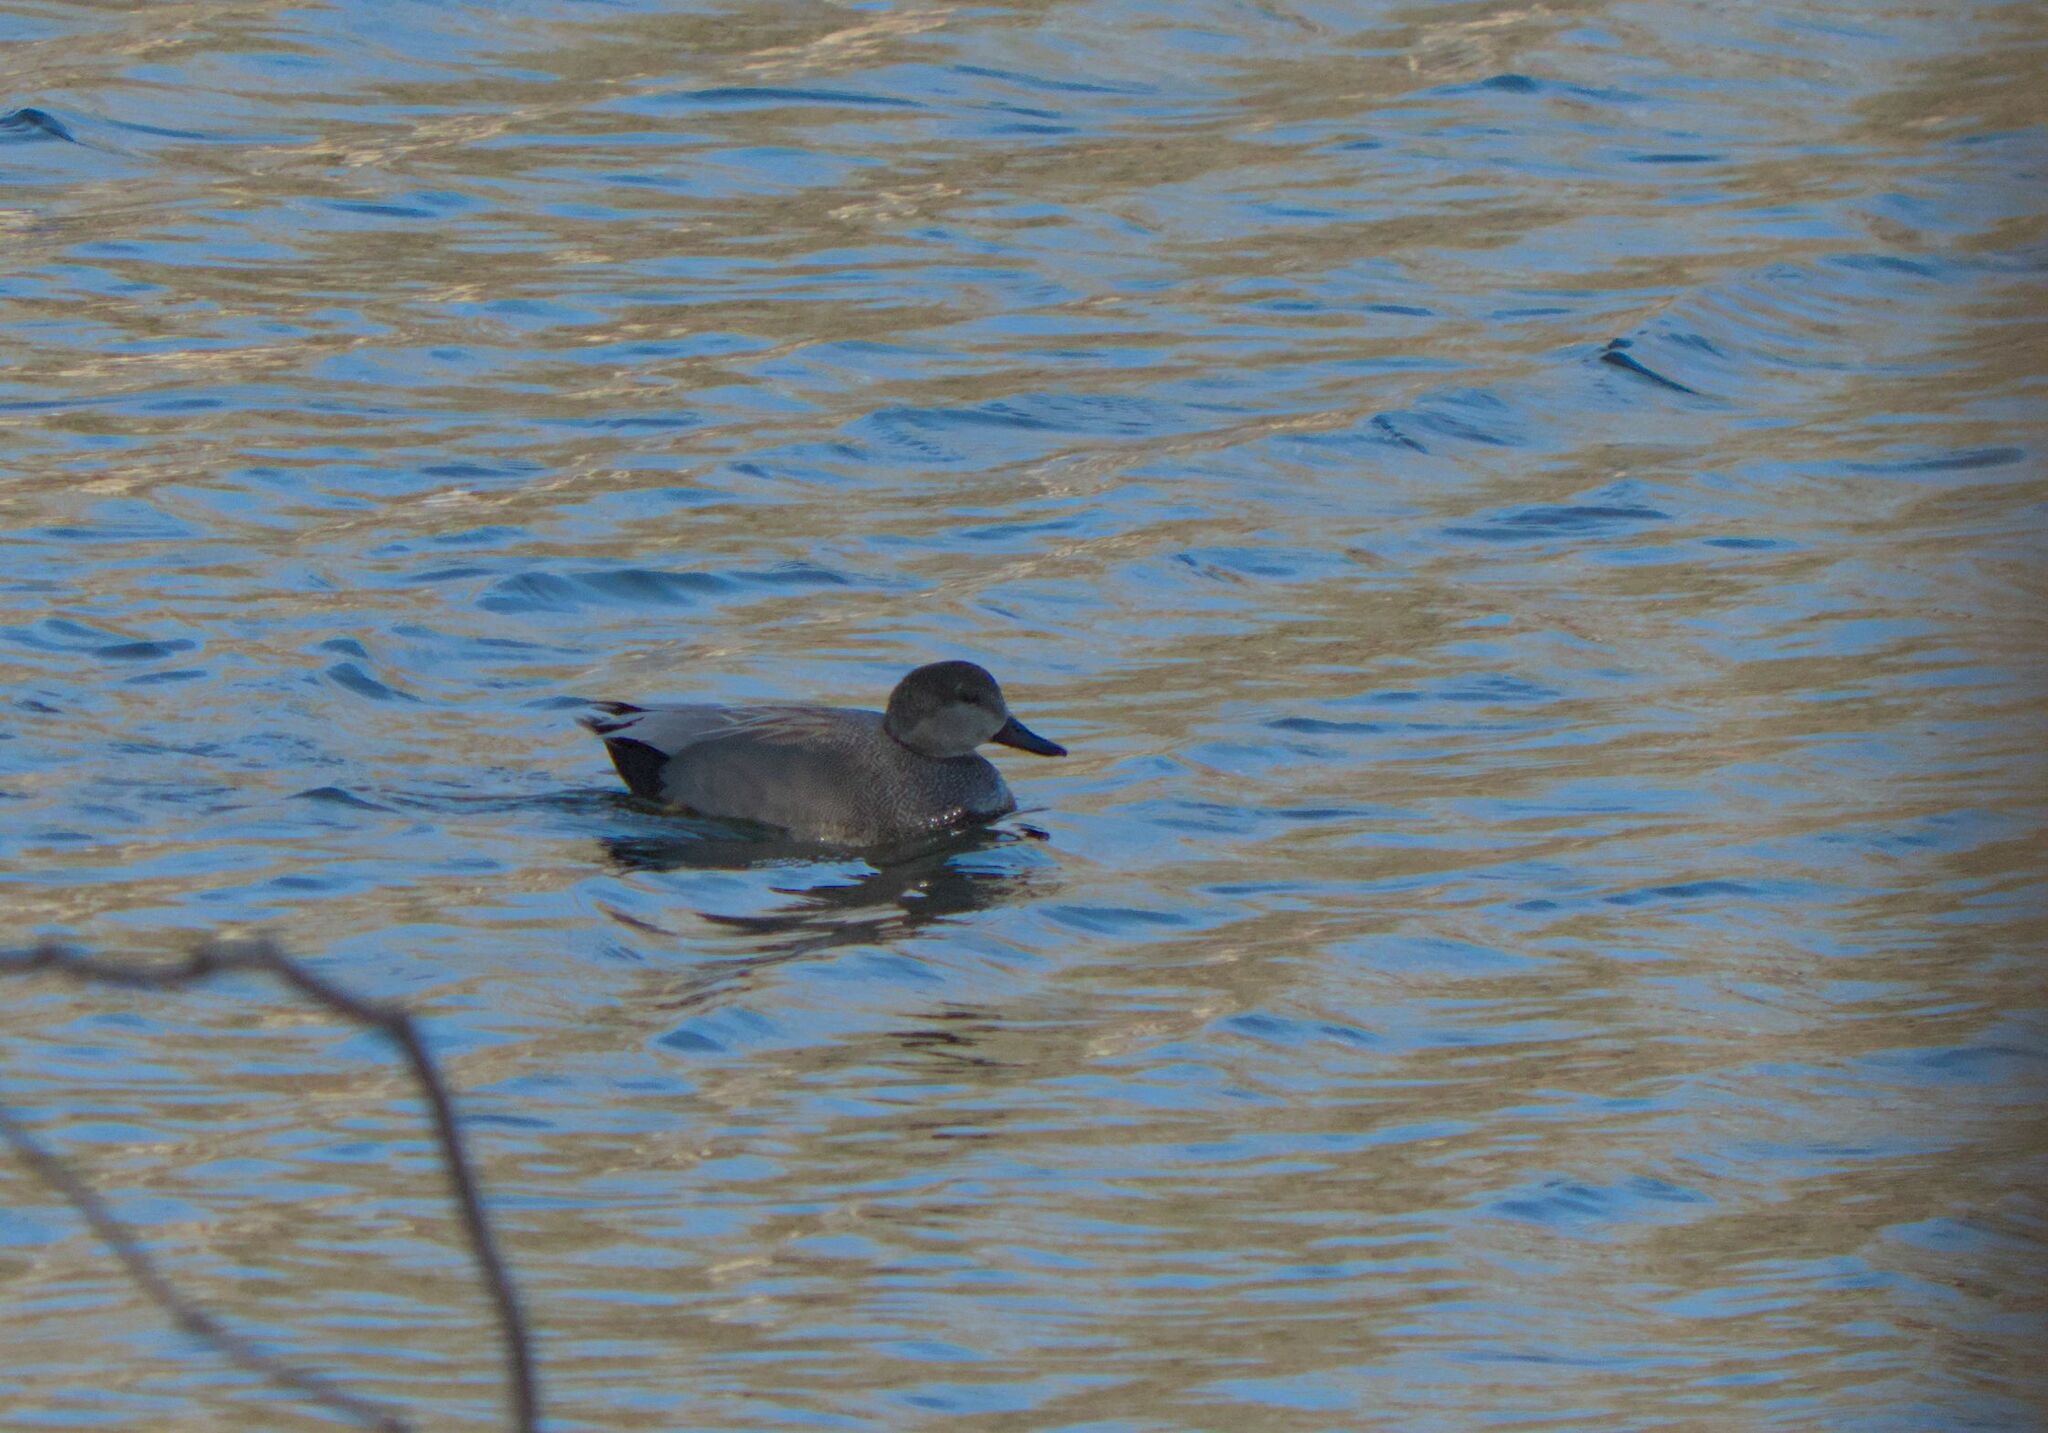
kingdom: Animalia
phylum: Chordata
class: Aves
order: Anseriformes
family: Anatidae
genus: Mareca
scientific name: Mareca strepera
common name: Gadwall
